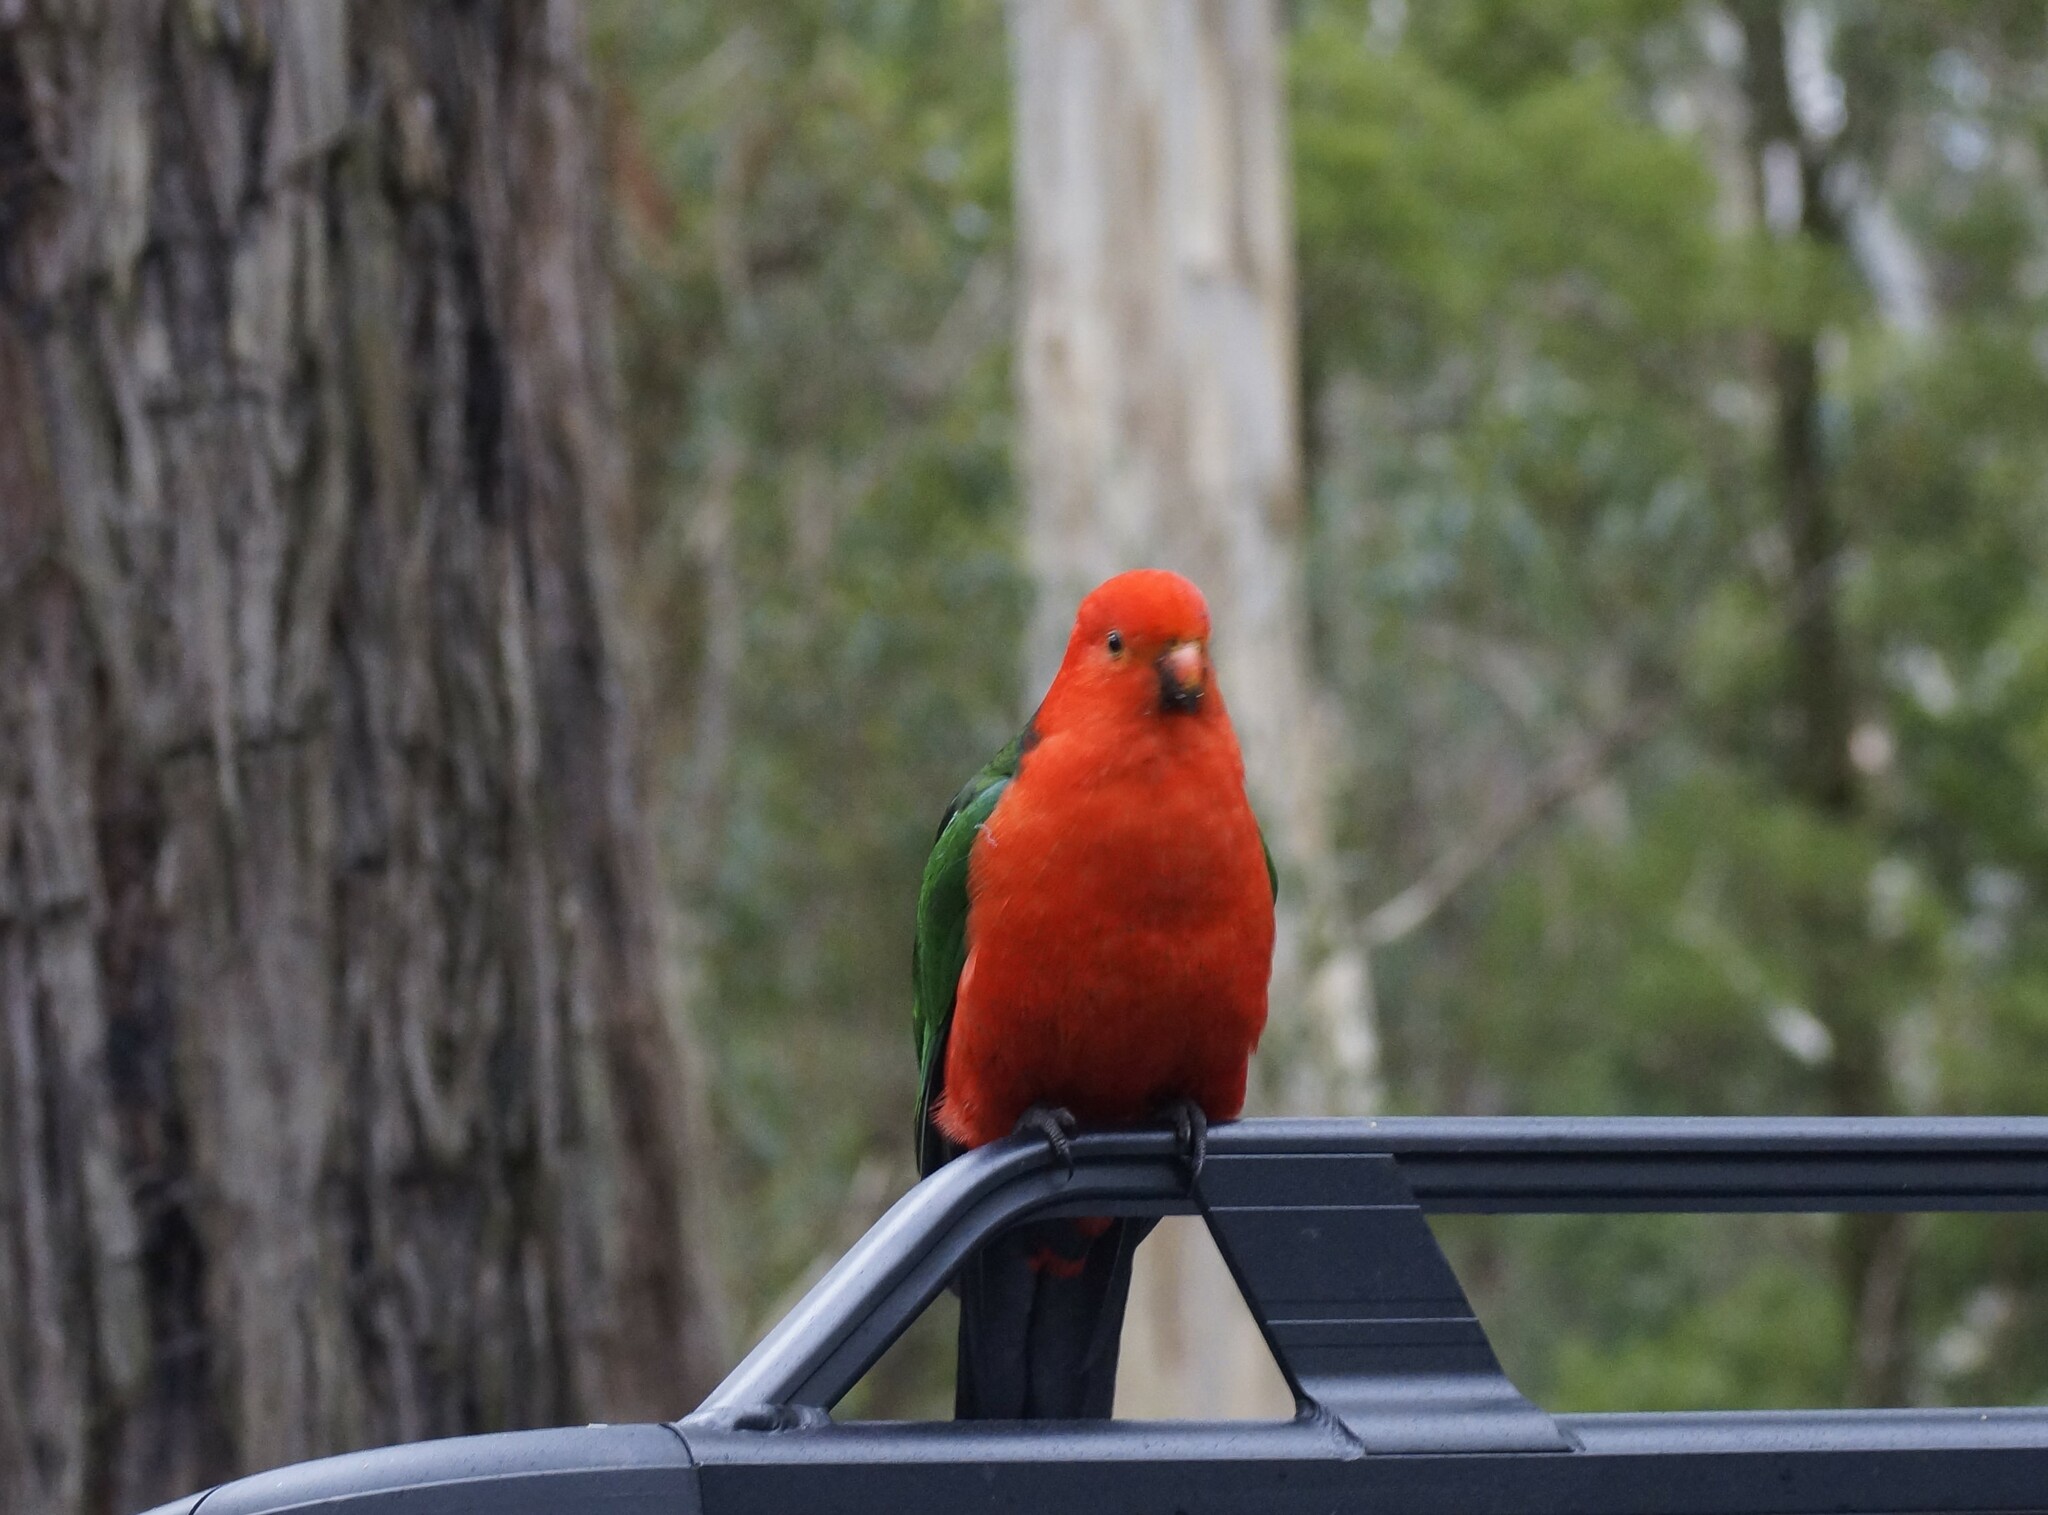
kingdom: Animalia
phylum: Chordata
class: Aves
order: Psittaciformes
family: Psittacidae
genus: Alisterus
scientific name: Alisterus scapularis
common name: Australian king parrot
